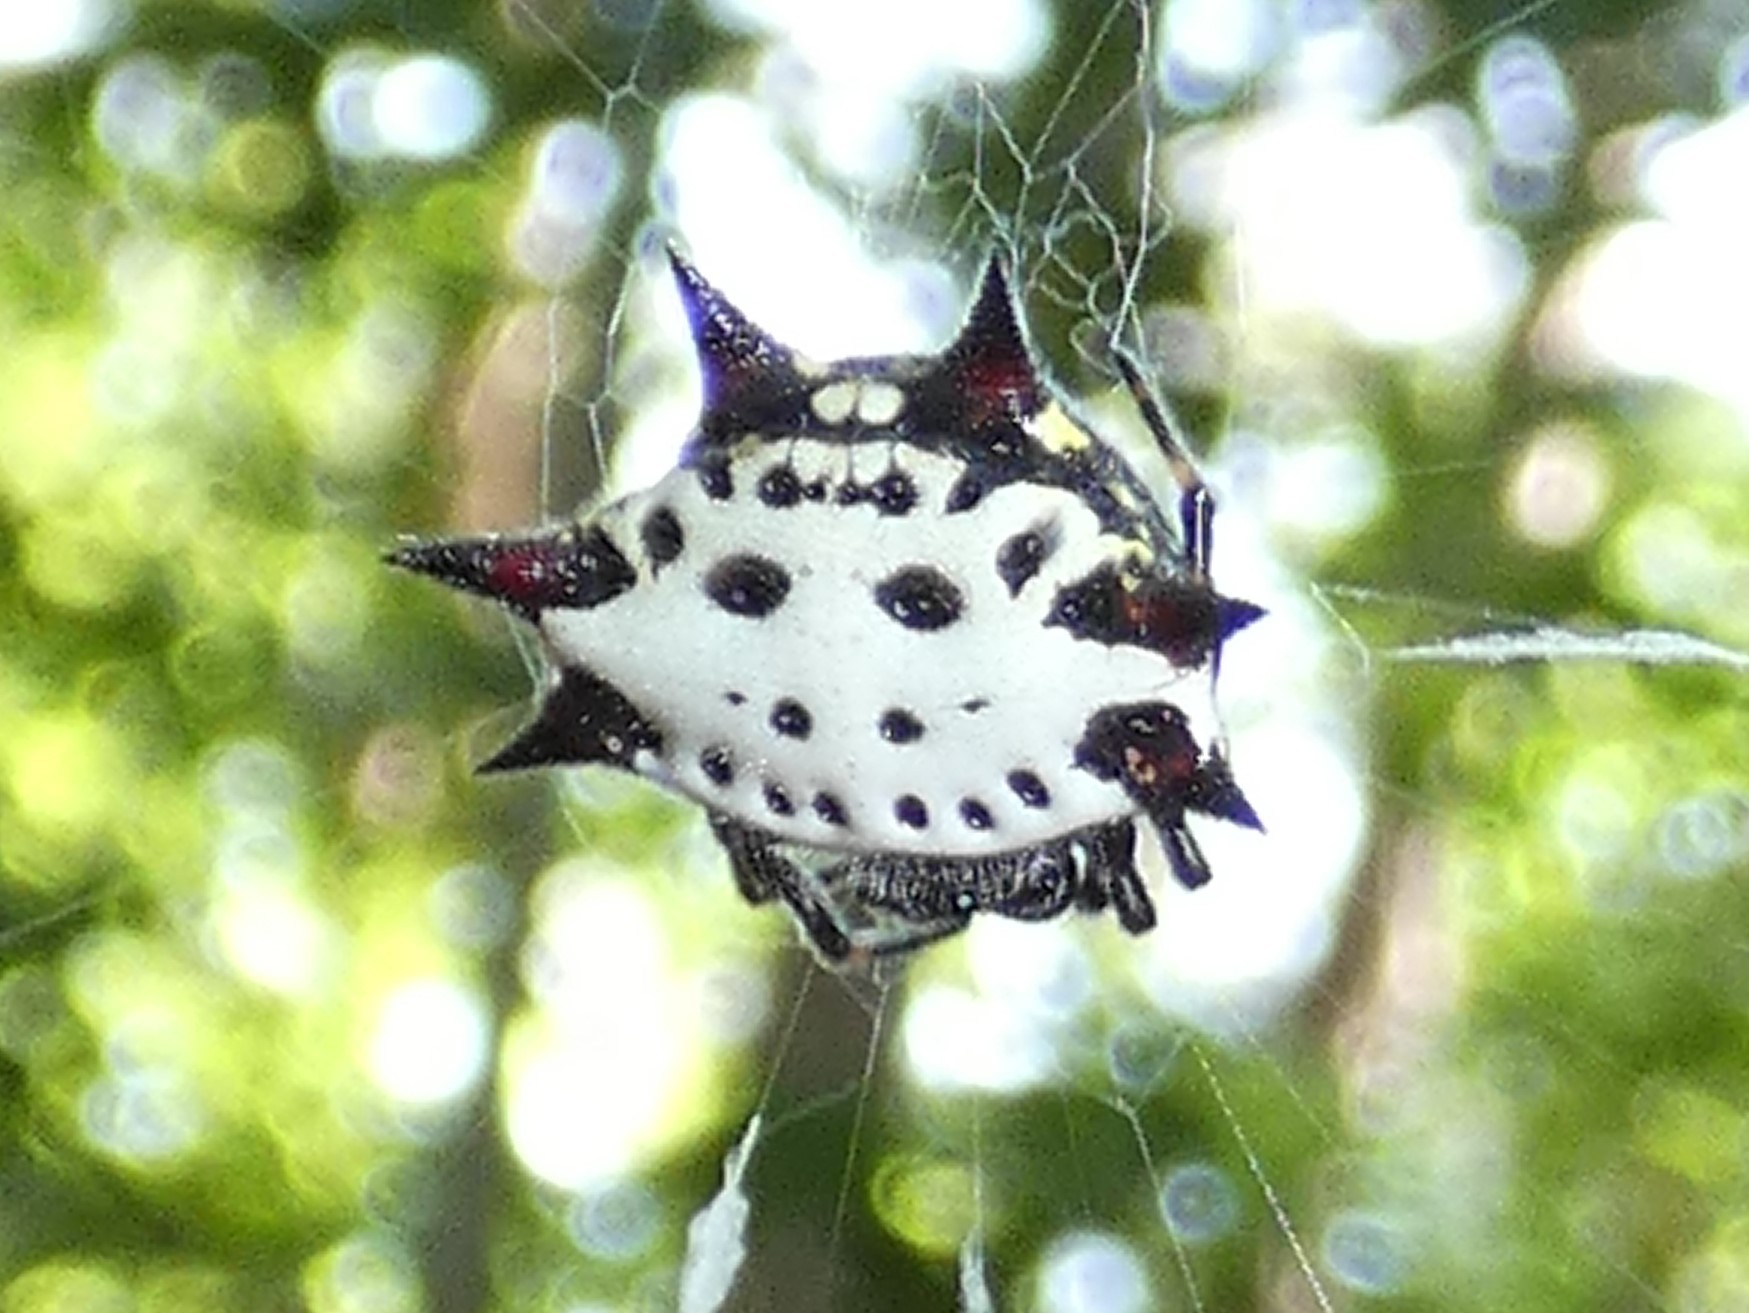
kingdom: Animalia
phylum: Arthropoda
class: Arachnida
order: Araneae
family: Araneidae
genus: Gasteracantha
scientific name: Gasteracantha cancriformis
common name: Orb weavers
